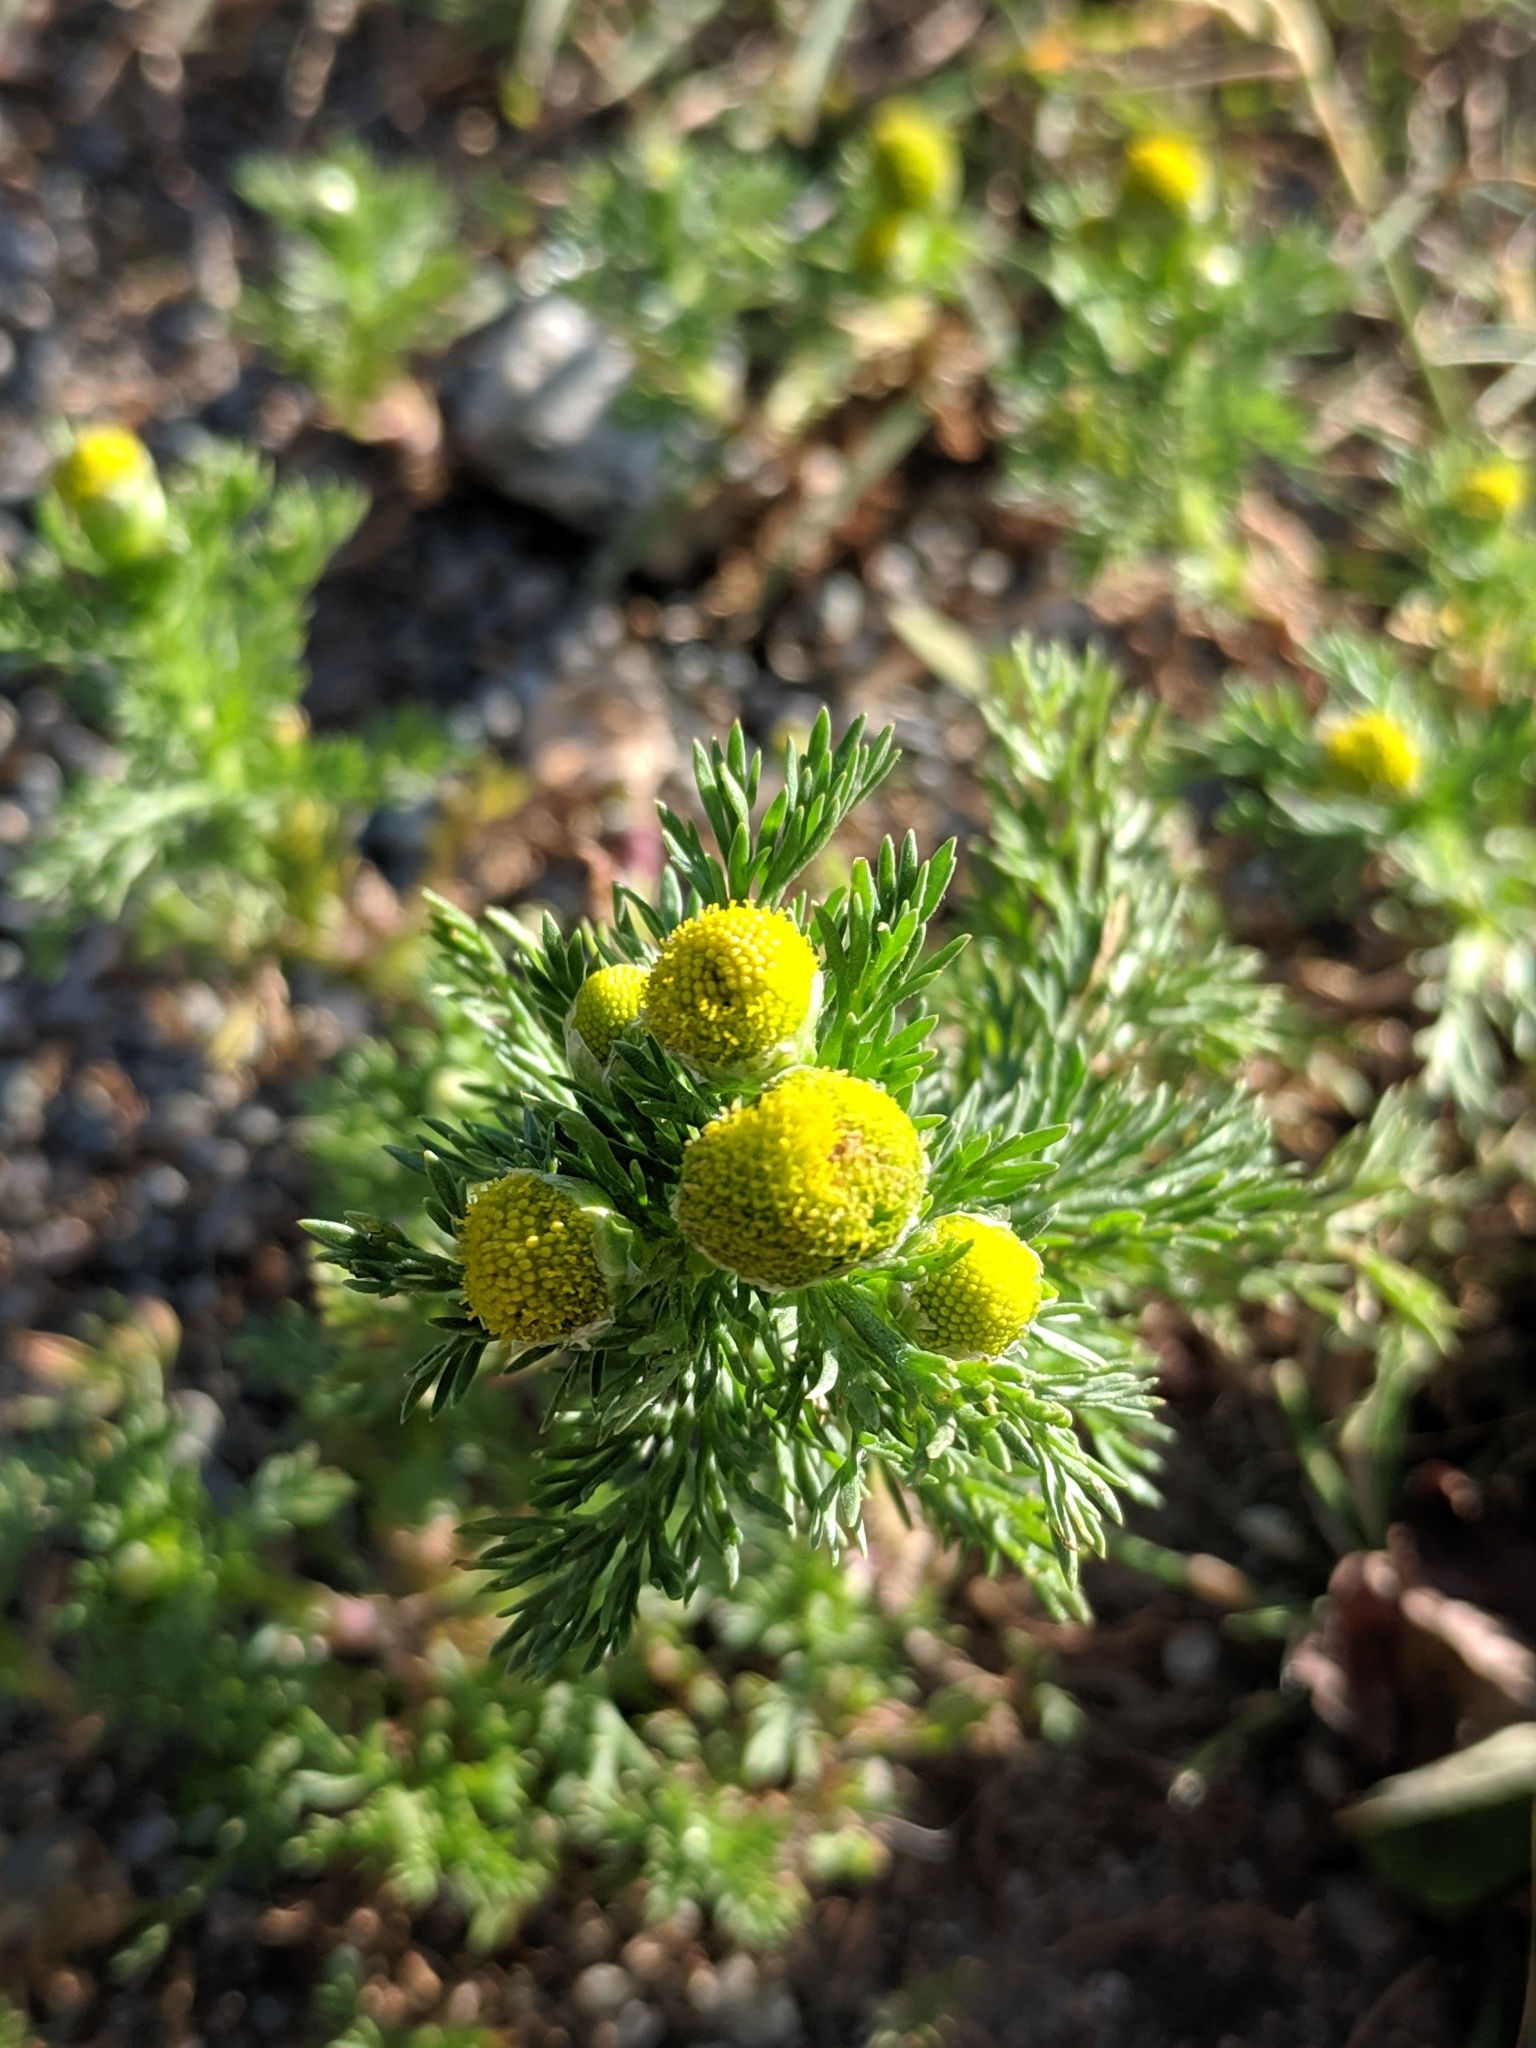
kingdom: Plantae
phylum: Tracheophyta
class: Magnoliopsida
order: Asterales
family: Asteraceae
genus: Matricaria
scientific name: Matricaria discoidea
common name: Disc mayweed
